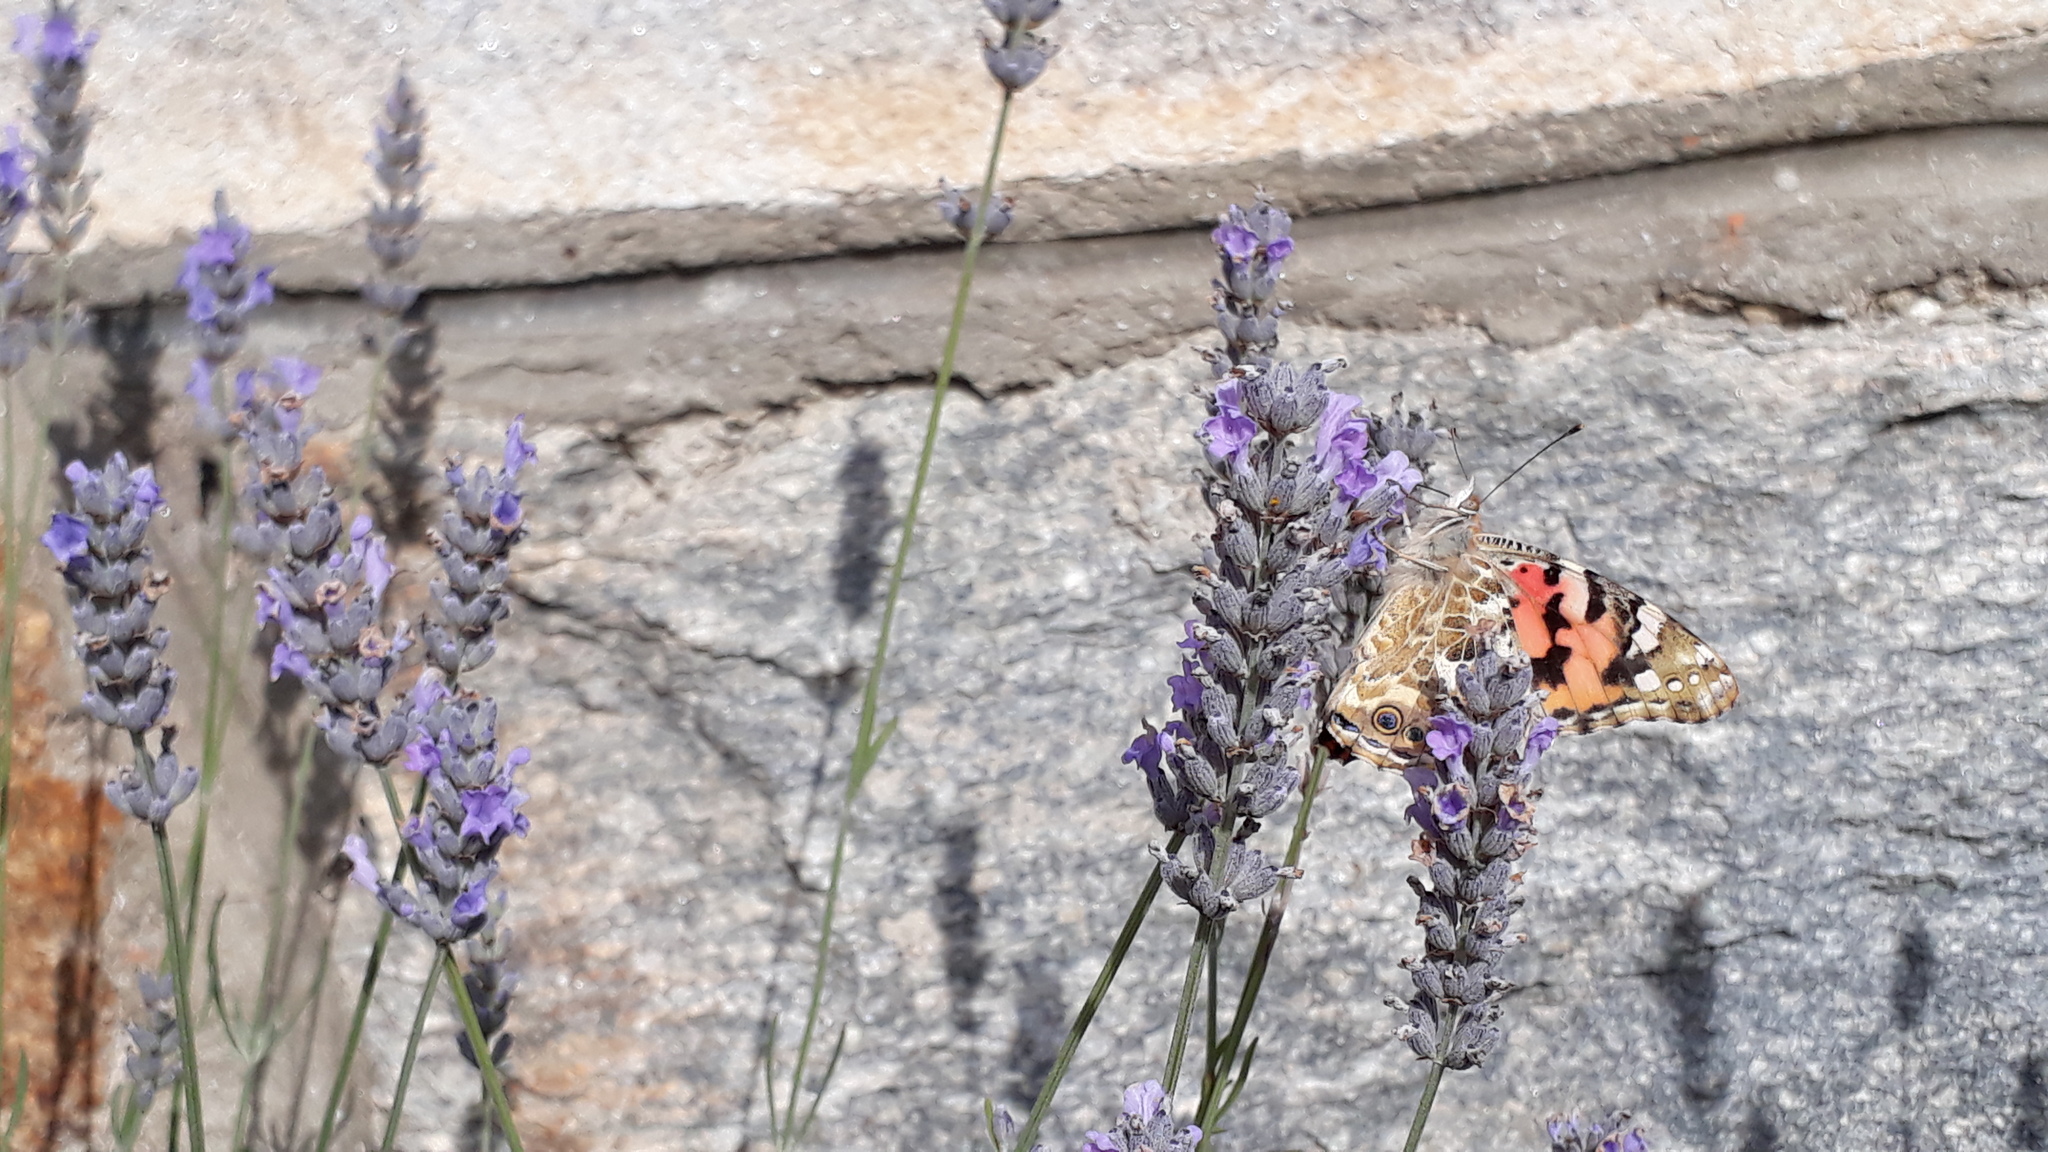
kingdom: Animalia
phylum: Arthropoda
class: Insecta
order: Lepidoptera
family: Nymphalidae
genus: Vanessa
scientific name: Vanessa cardui
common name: Painted lady
